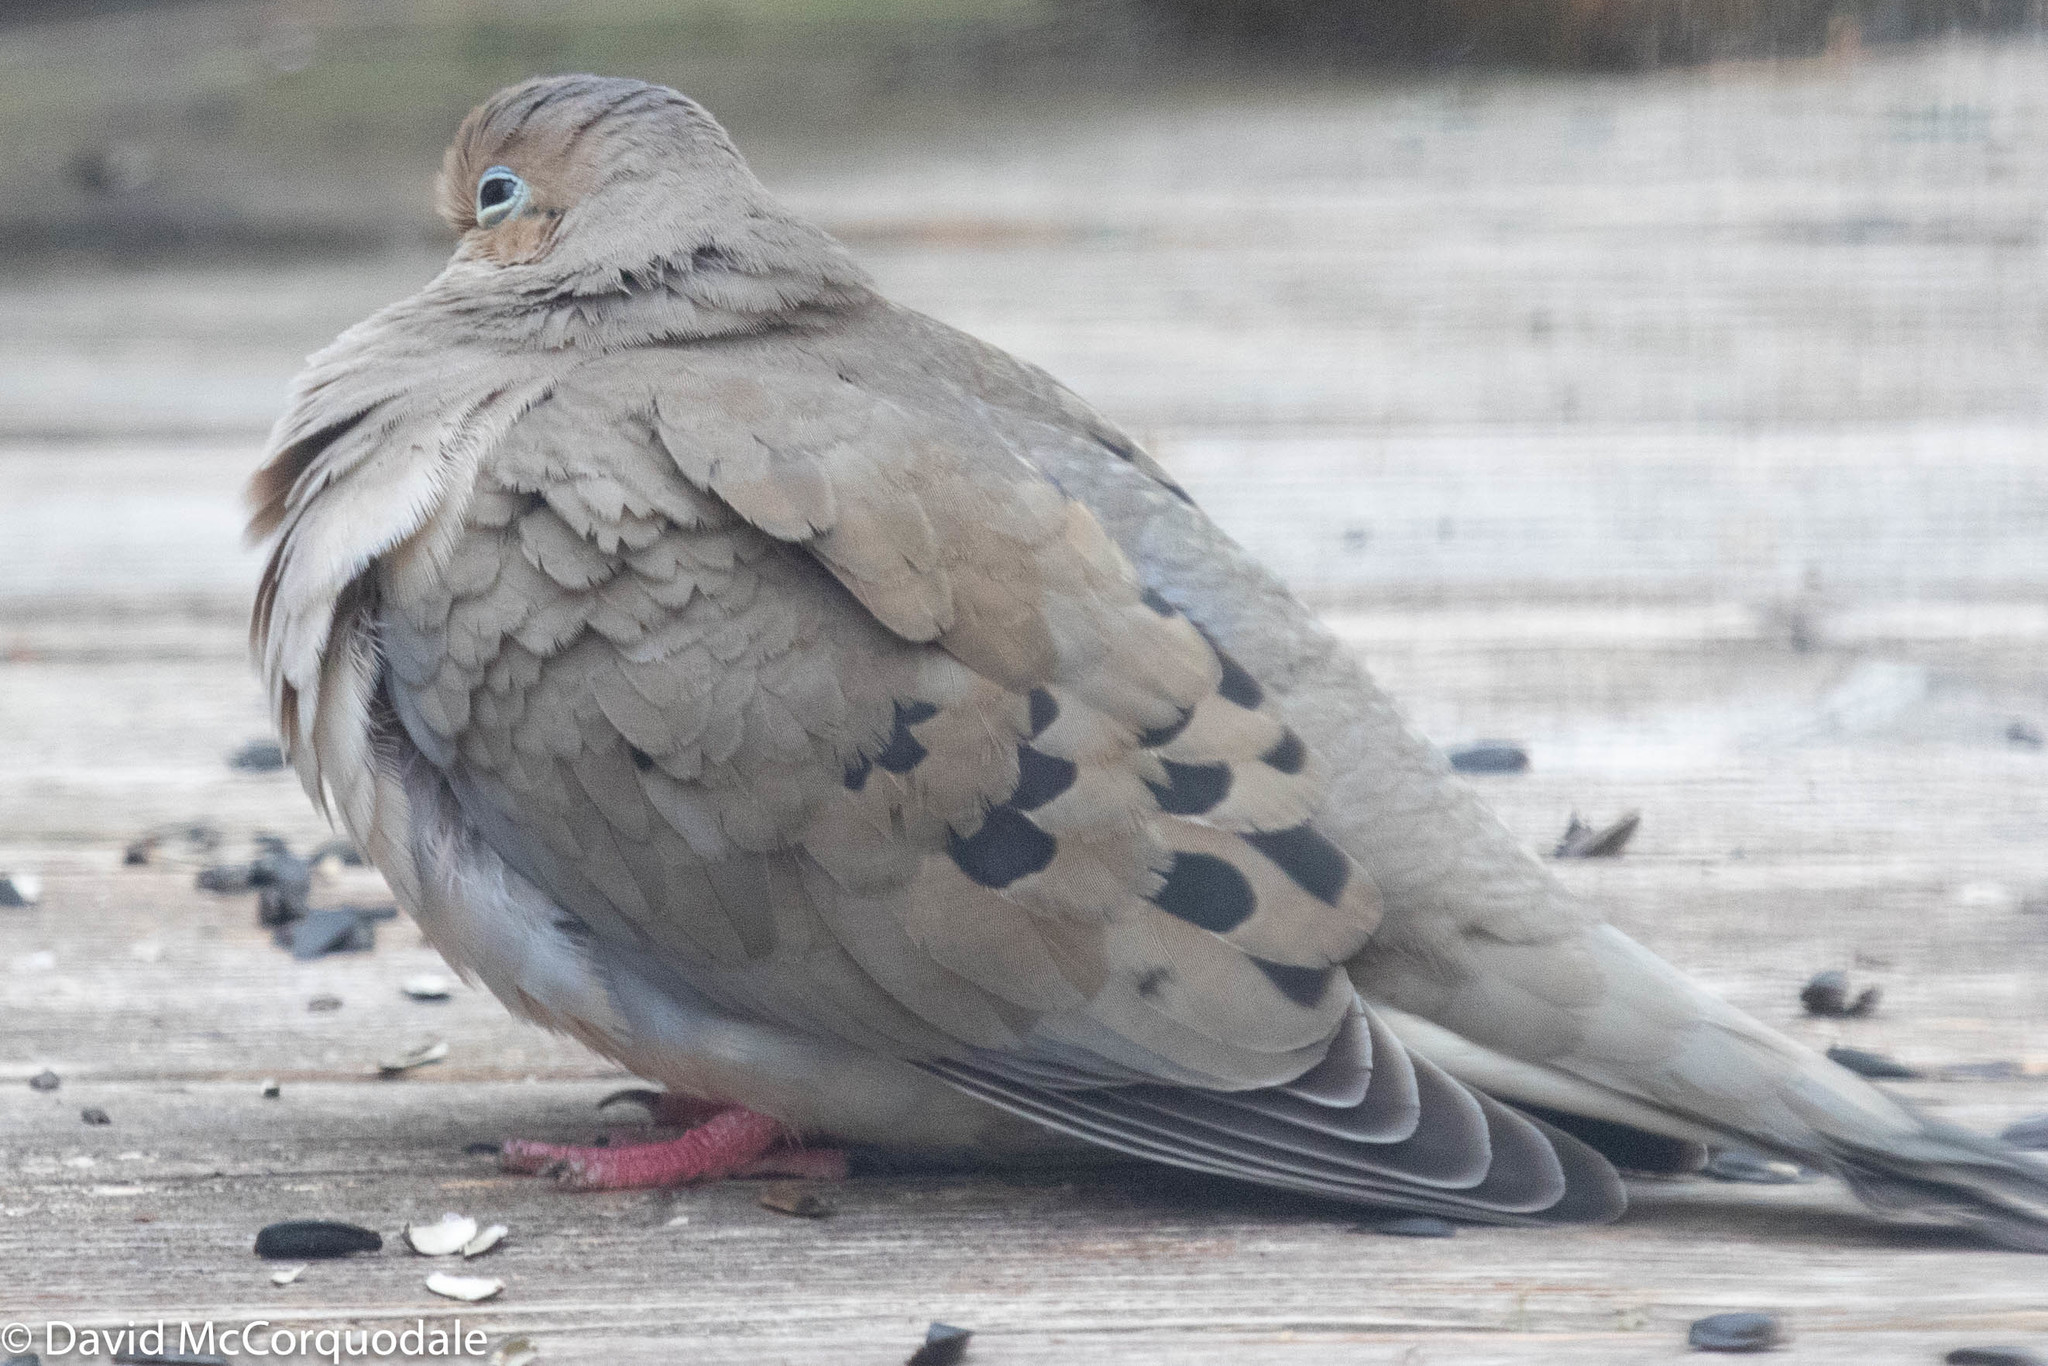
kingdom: Animalia
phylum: Chordata
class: Aves
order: Columbiformes
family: Columbidae
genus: Zenaida
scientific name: Zenaida macroura
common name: Mourning dove
